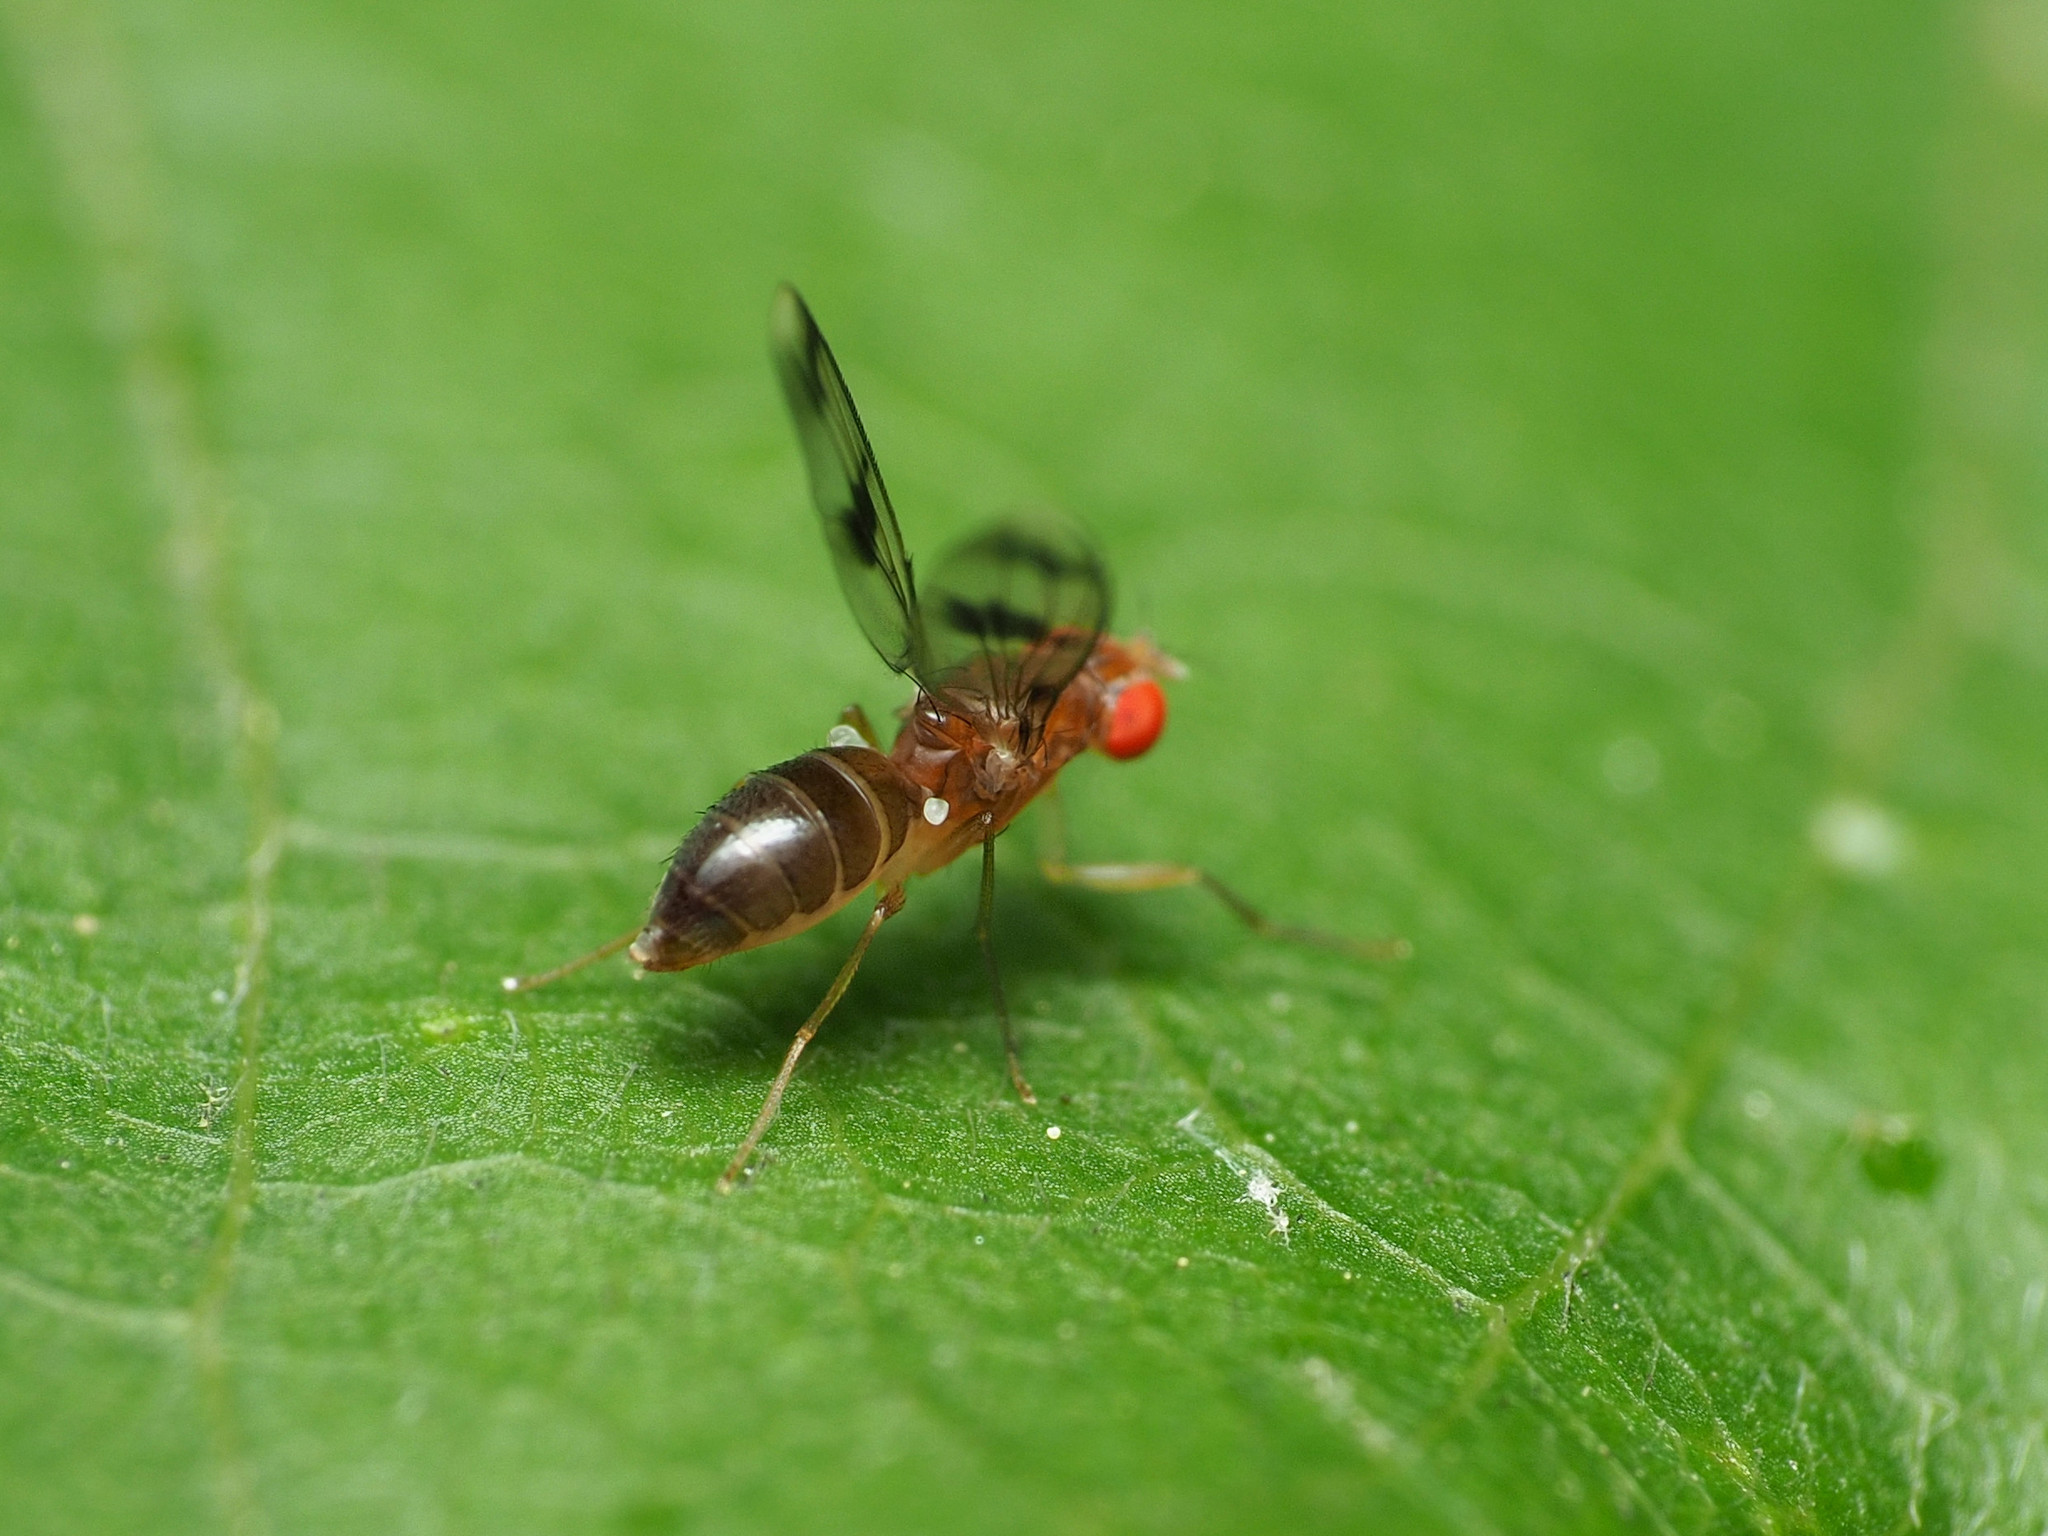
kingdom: Animalia
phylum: Arthropoda
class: Insecta
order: Diptera
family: Drosophilidae
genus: Chymomyza
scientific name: Chymomyza amoena
